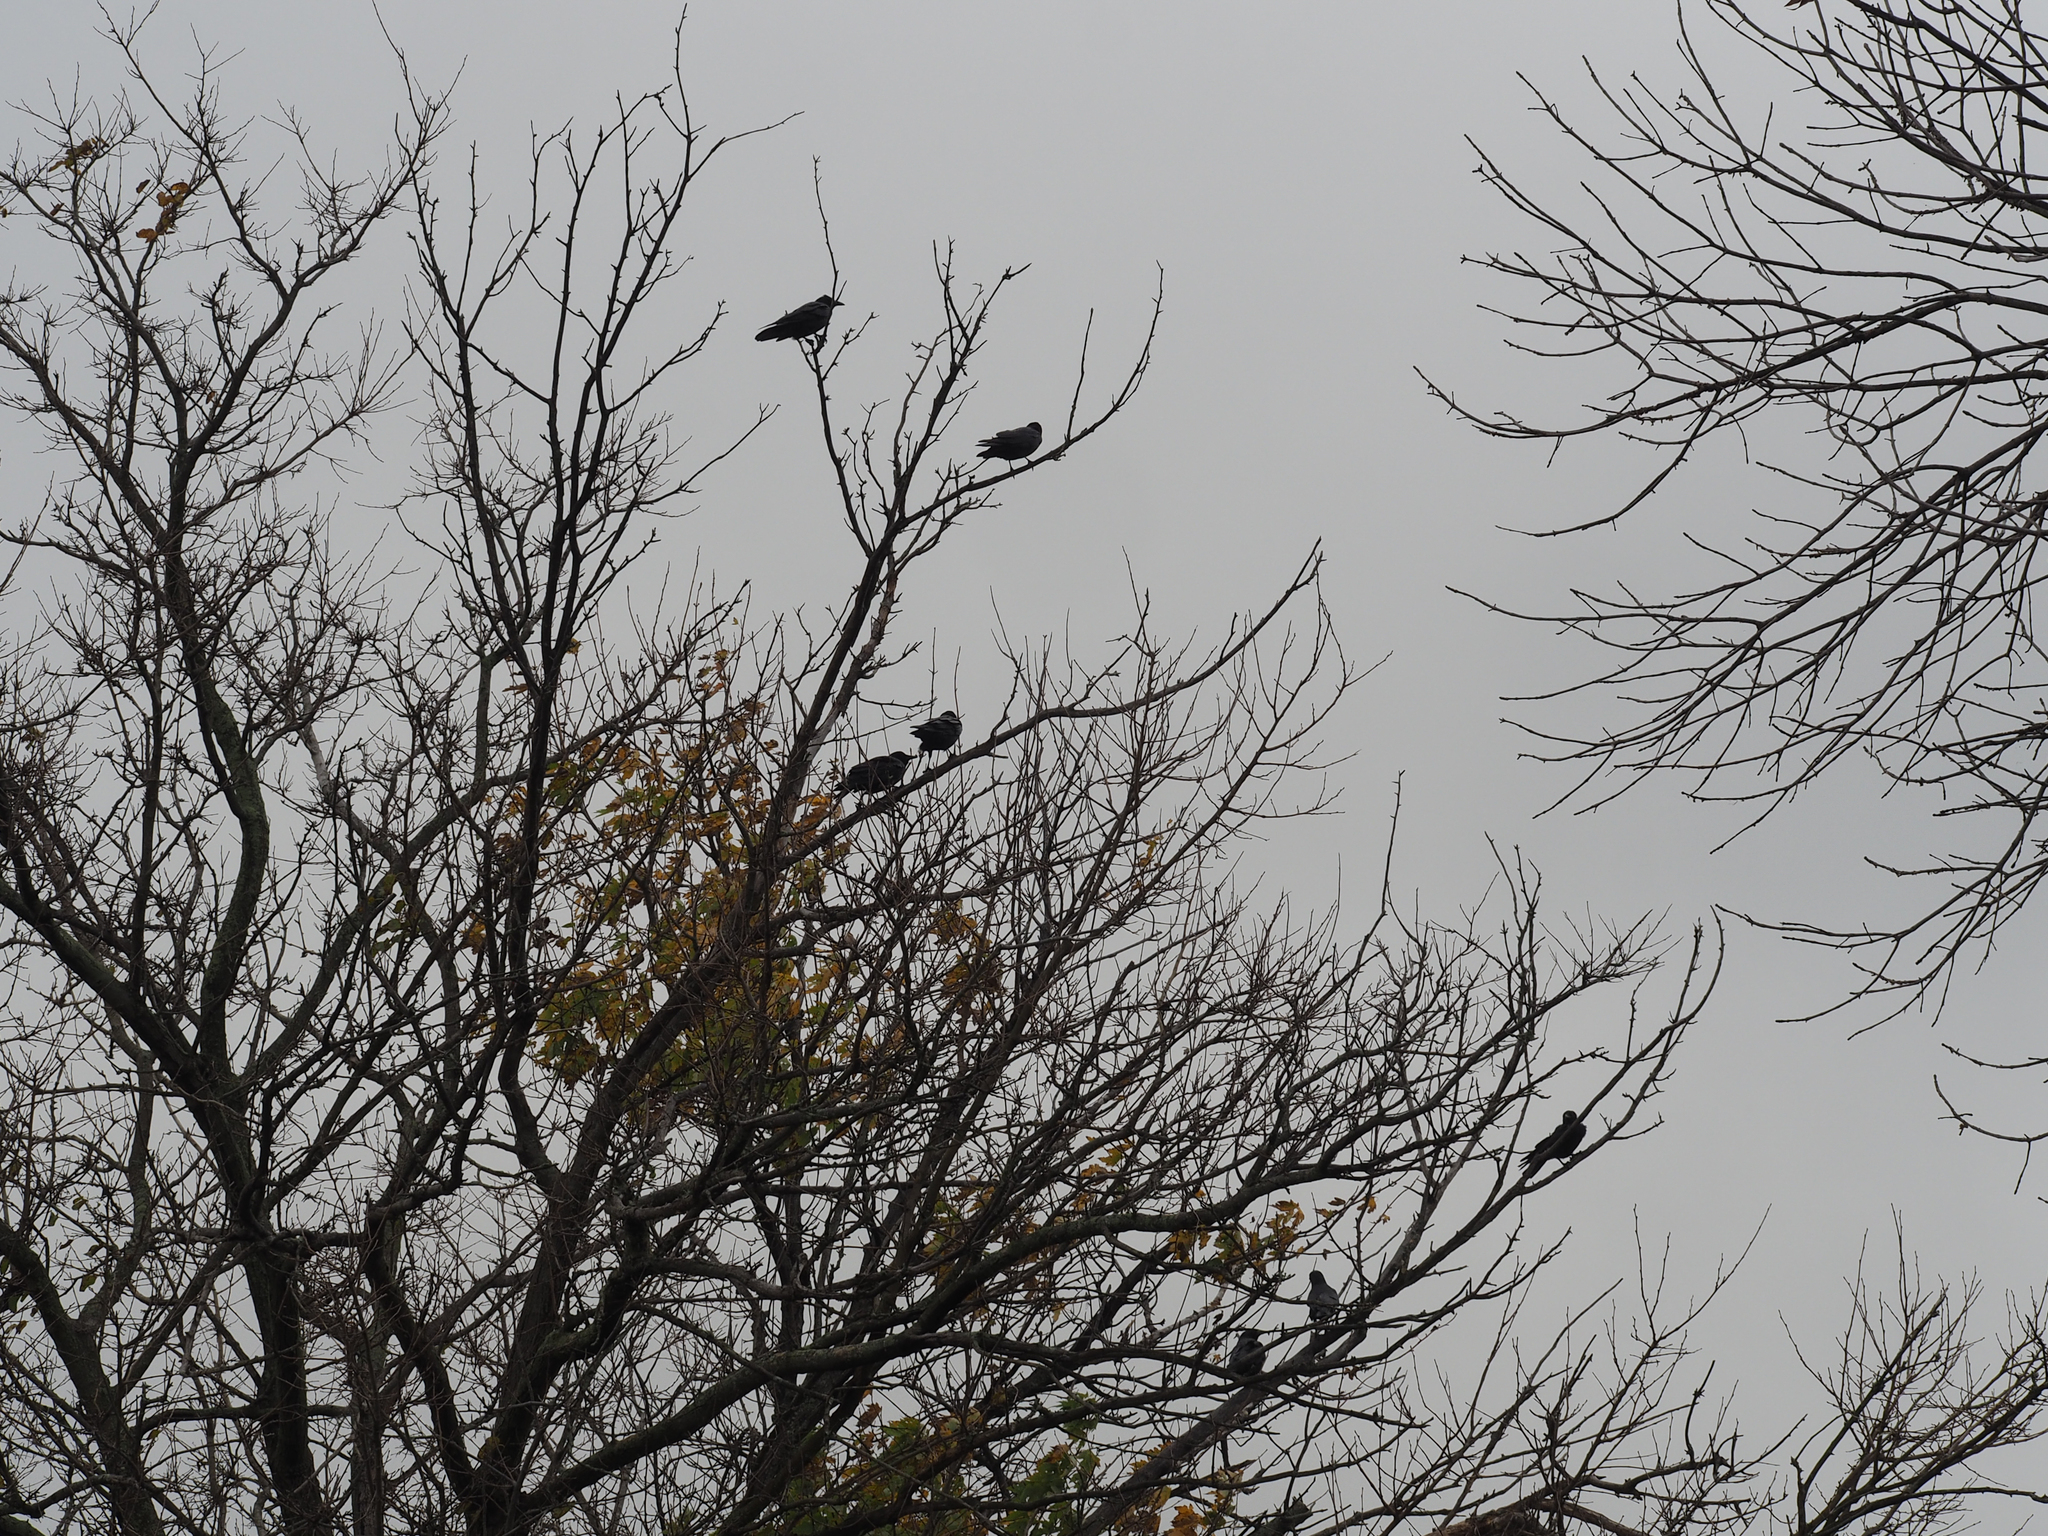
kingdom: Animalia
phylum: Chordata
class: Aves
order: Passeriformes
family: Corvidae
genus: Corvus
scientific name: Corvus ossifragus
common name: Fish crow
